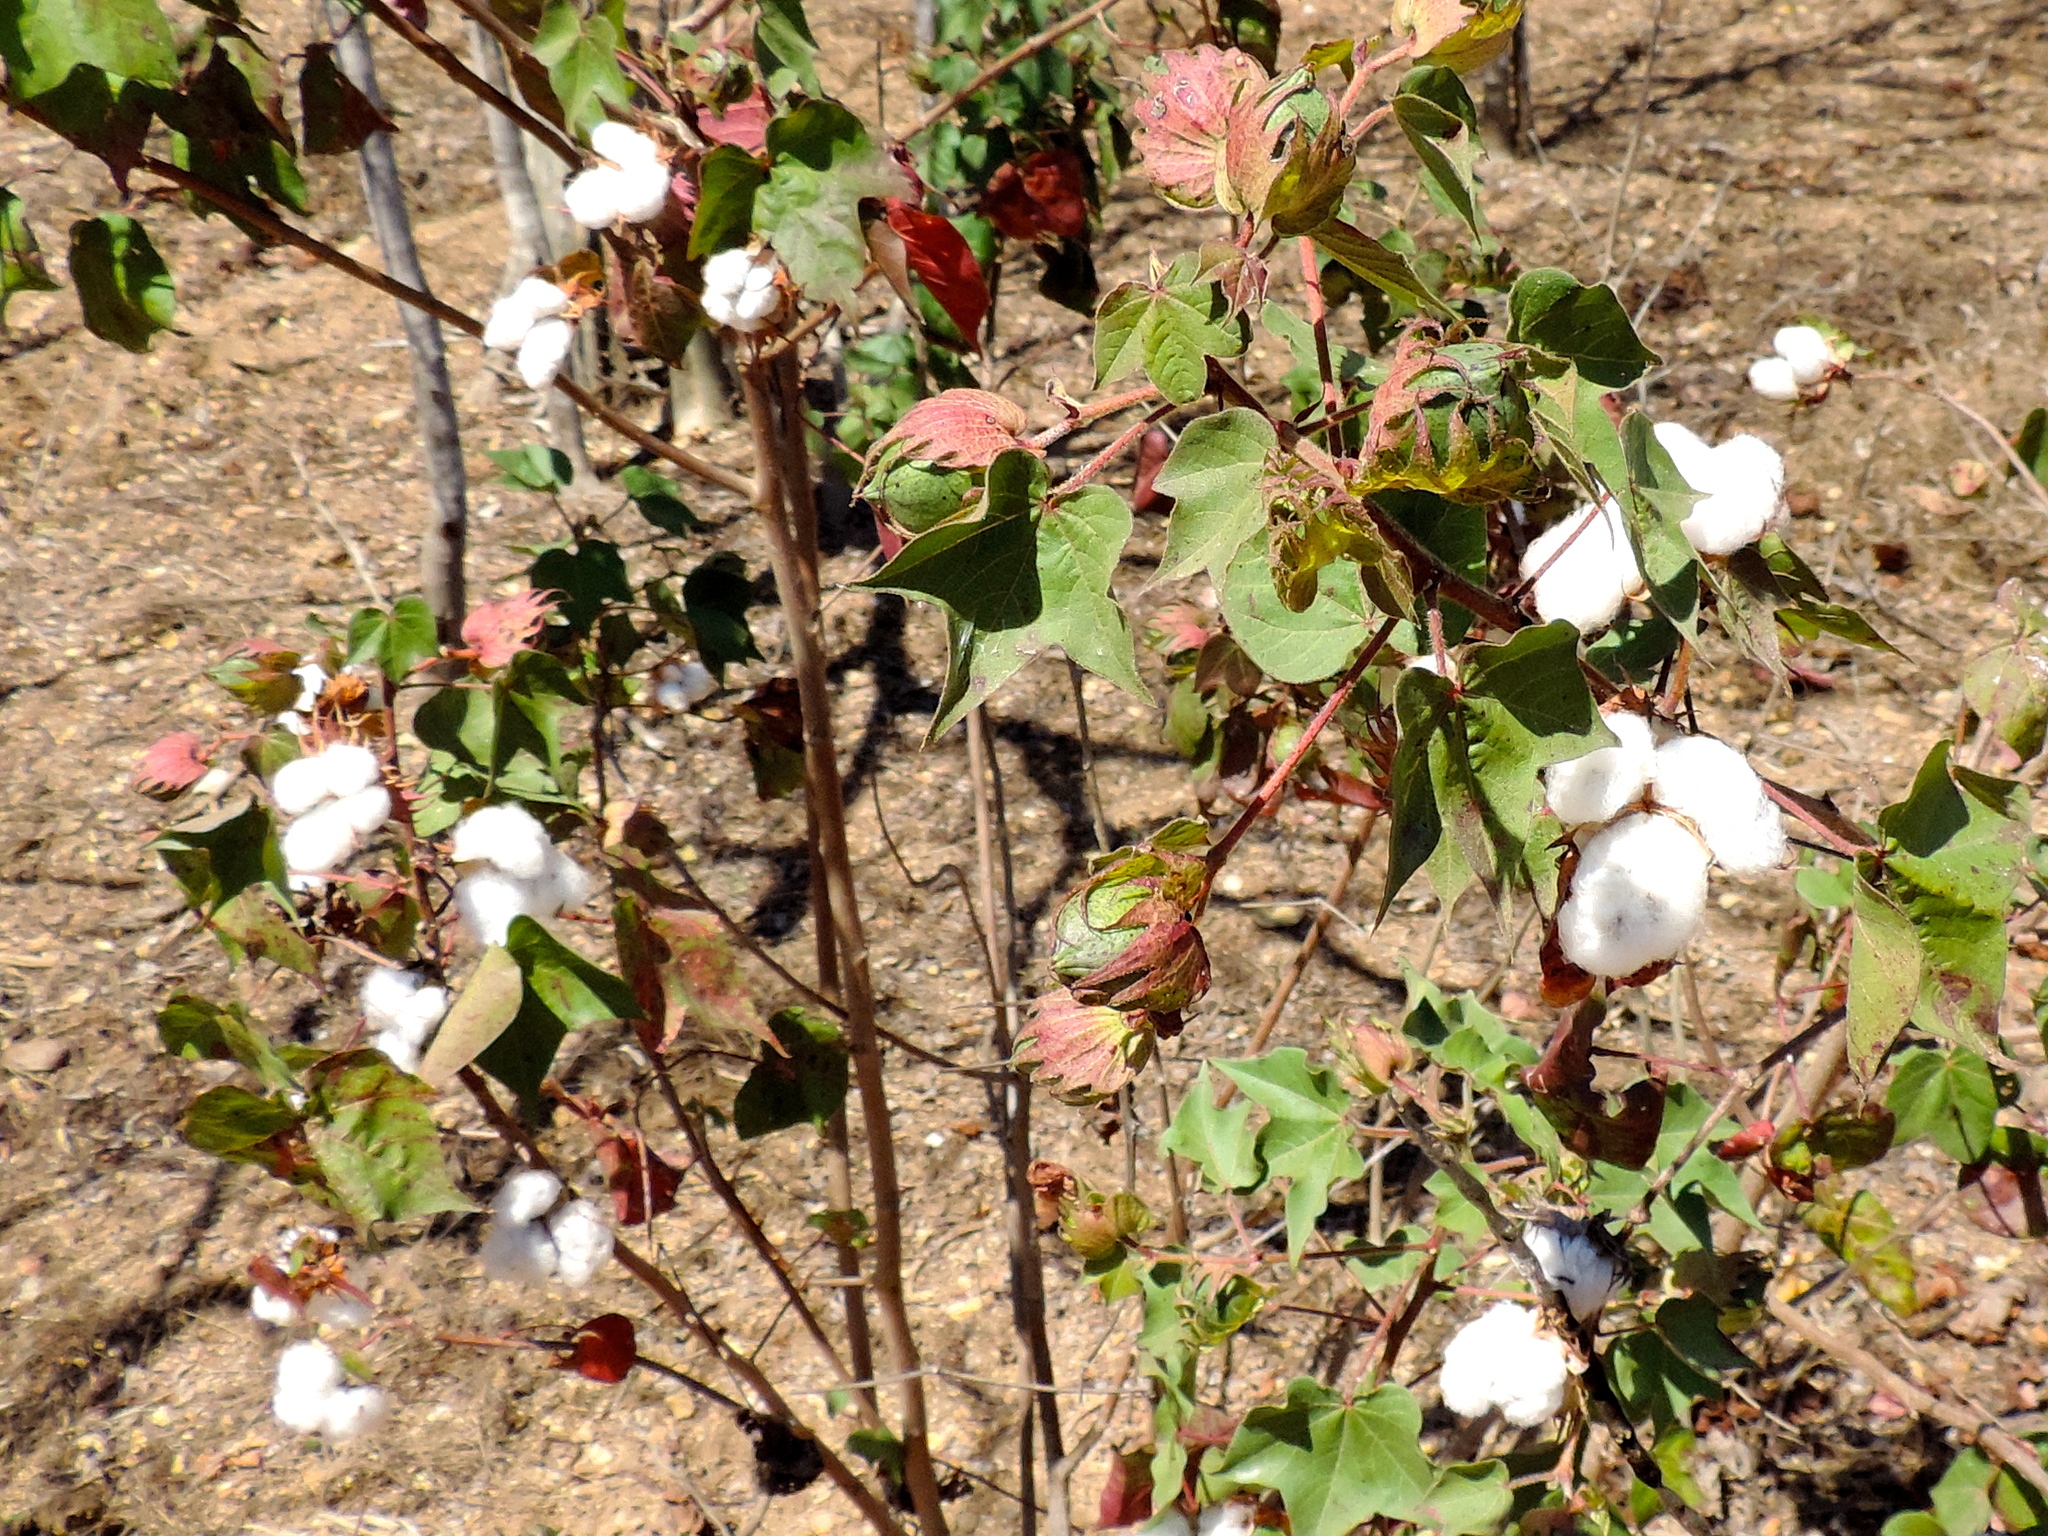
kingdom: Plantae
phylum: Tracheophyta
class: Magnoliopsida
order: Malvales
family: Malvaceae
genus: Gossypium
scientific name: Gossypium hirsutum
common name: Cotton
